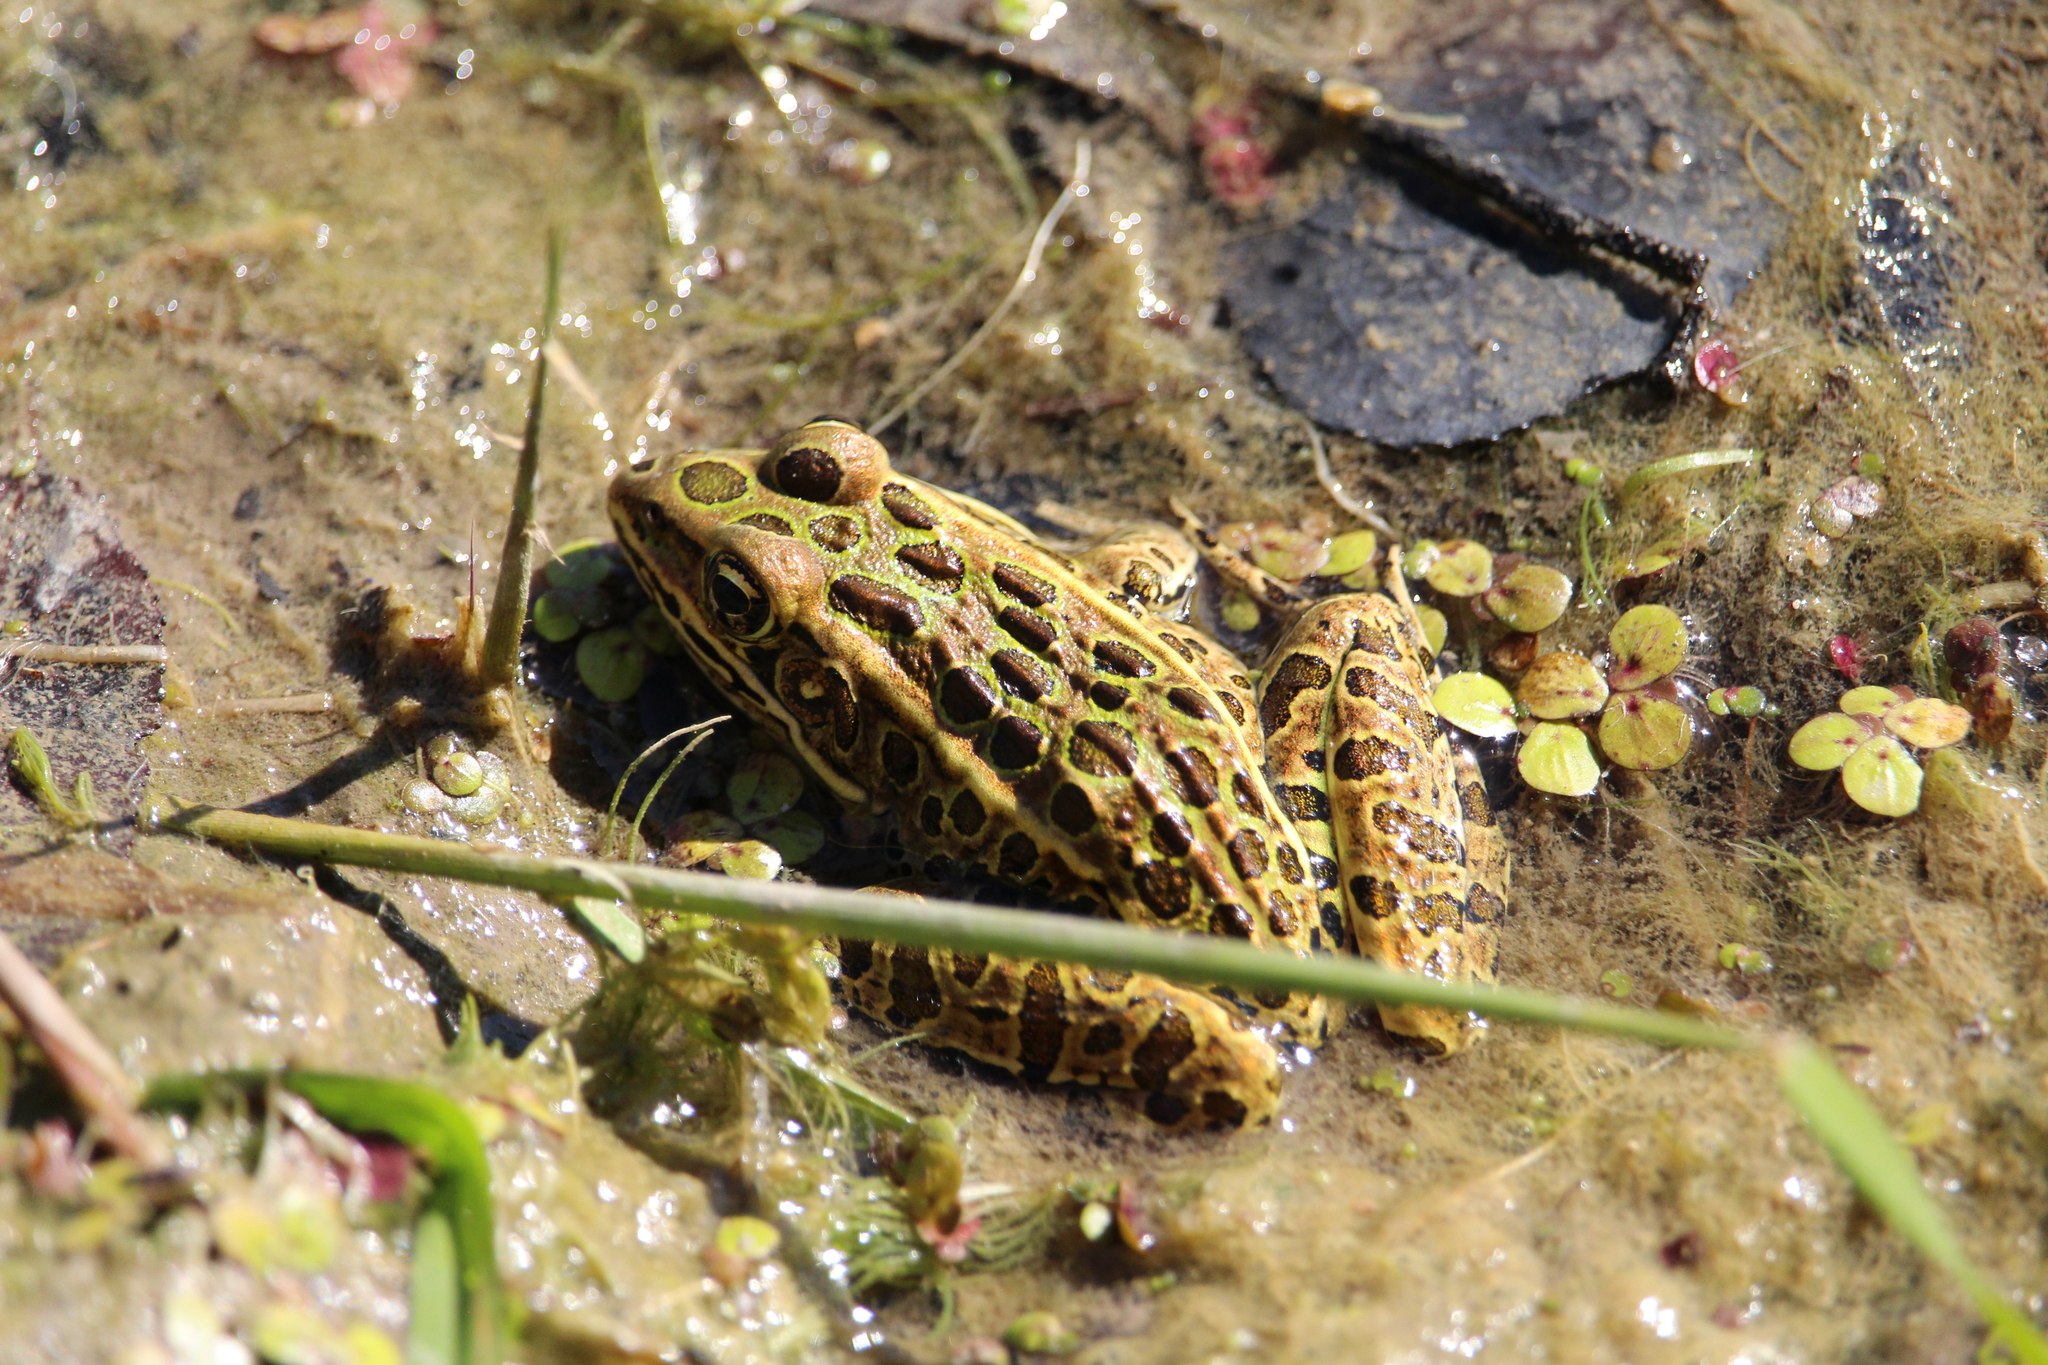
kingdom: Animalia
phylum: Chordata
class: Amphibia
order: Anura
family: Ranidae
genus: Lithobates
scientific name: Lithobates pipiens
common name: Northern leopard frog
